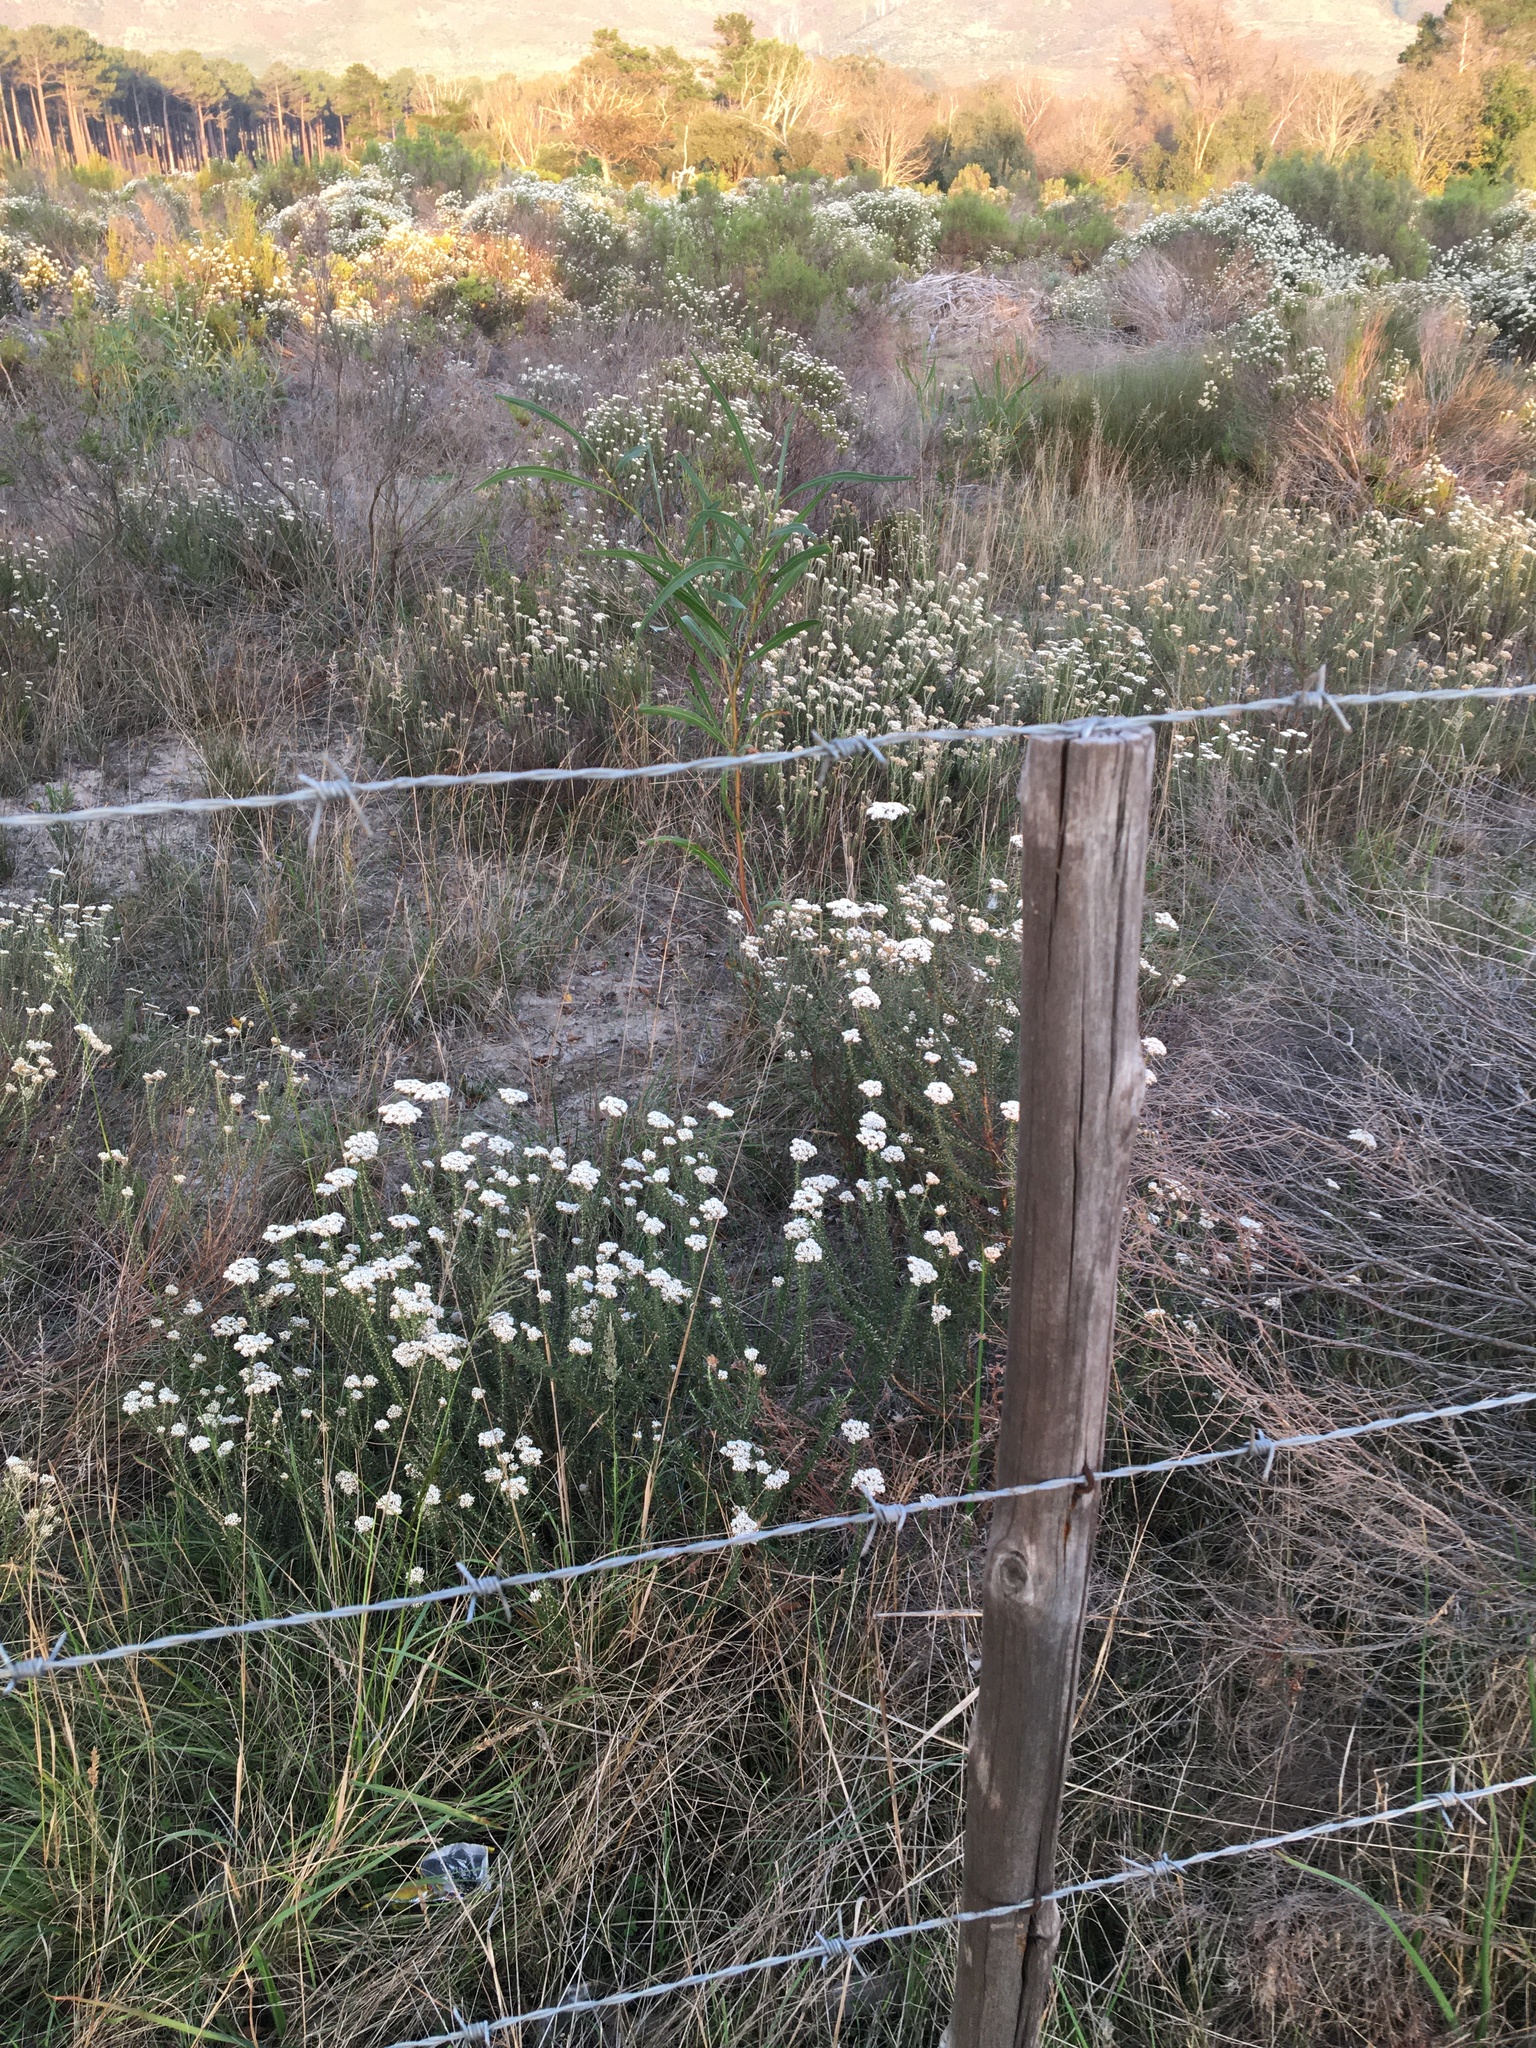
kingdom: Plantae
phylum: Tracheophyta
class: Magnoliopsida
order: Fabales
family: Fabaceae
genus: Acacia
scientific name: Acacia saligna
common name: Orange wattle
